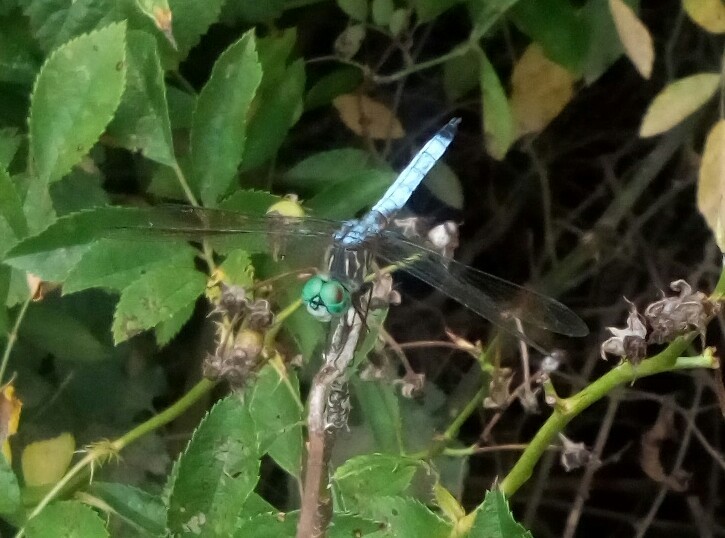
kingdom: Animalia
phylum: Arthropoda
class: Insecta
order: Odonata
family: Libellulidae
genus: Pachydiplax
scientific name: Pachydiplax longipennis
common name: Blue dasher
